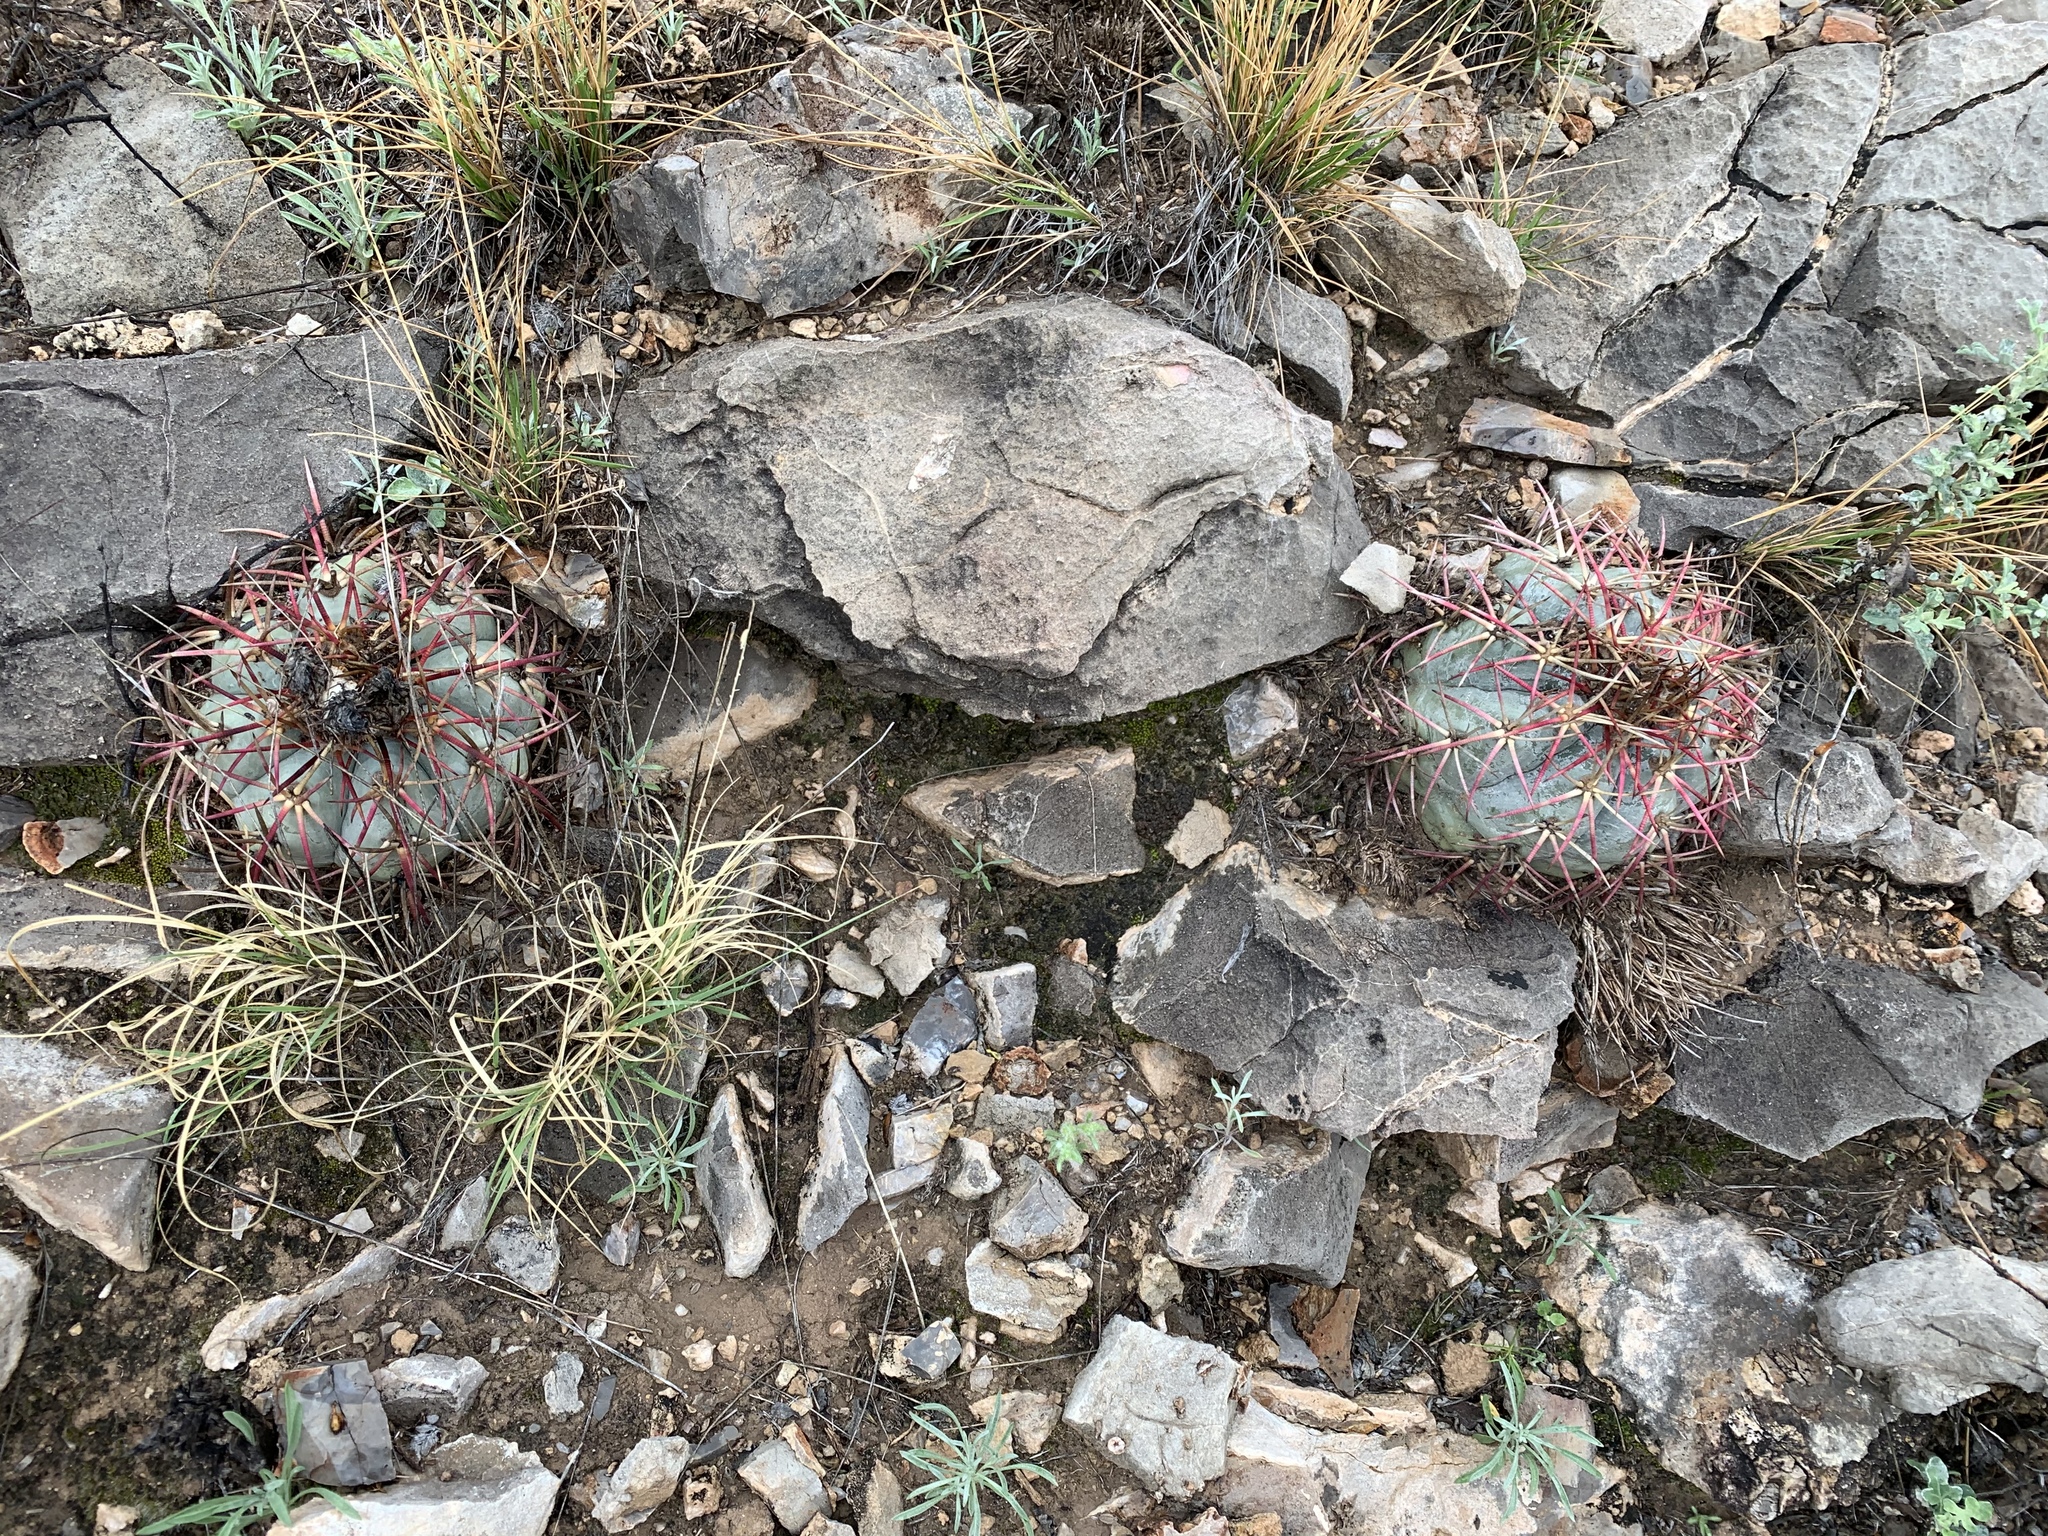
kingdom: Plantae
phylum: Tracheophyta
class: Magnoliopsida
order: Caryophyllales
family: Cactaceae
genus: Echinocactus
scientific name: Echinocactus horizonthalonius
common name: Devilshead
